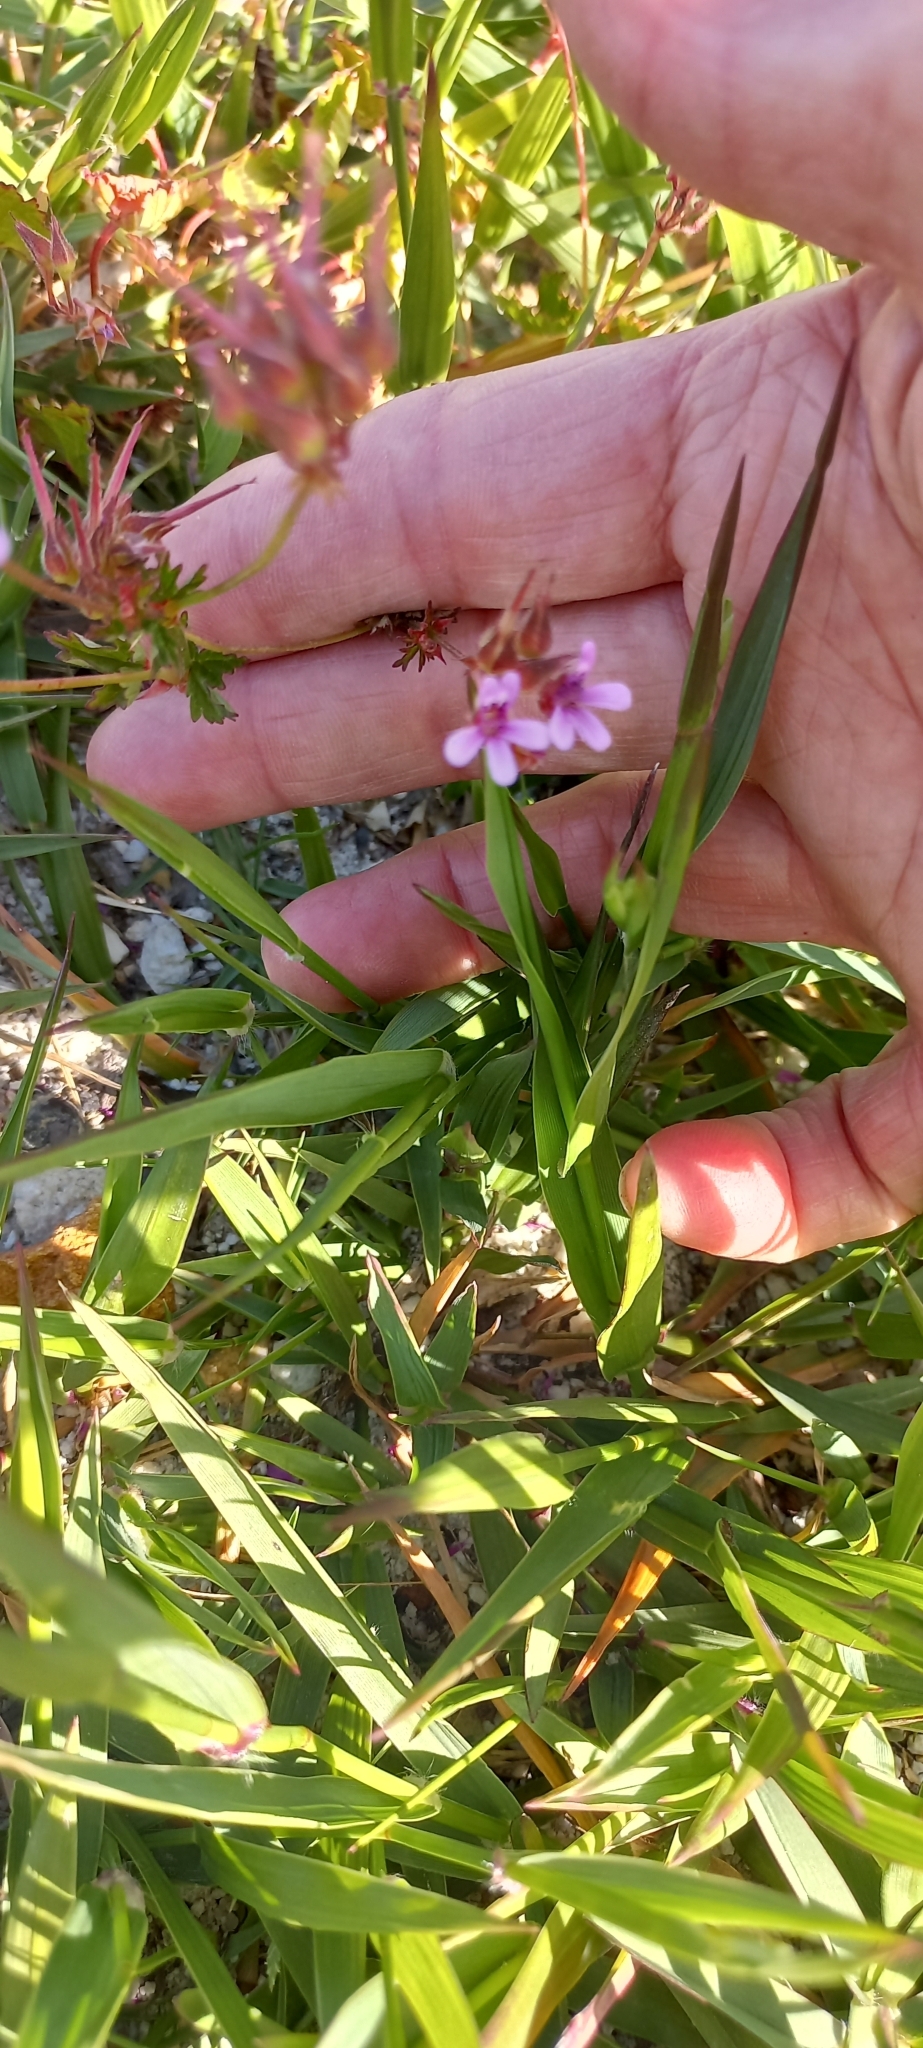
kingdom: Plantae
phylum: Tracheophyta
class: Magnoliopsida
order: Geraniales
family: Geraniaceae
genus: Pelargonium
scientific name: Pelargonium capitatum
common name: Rose scented geranium
